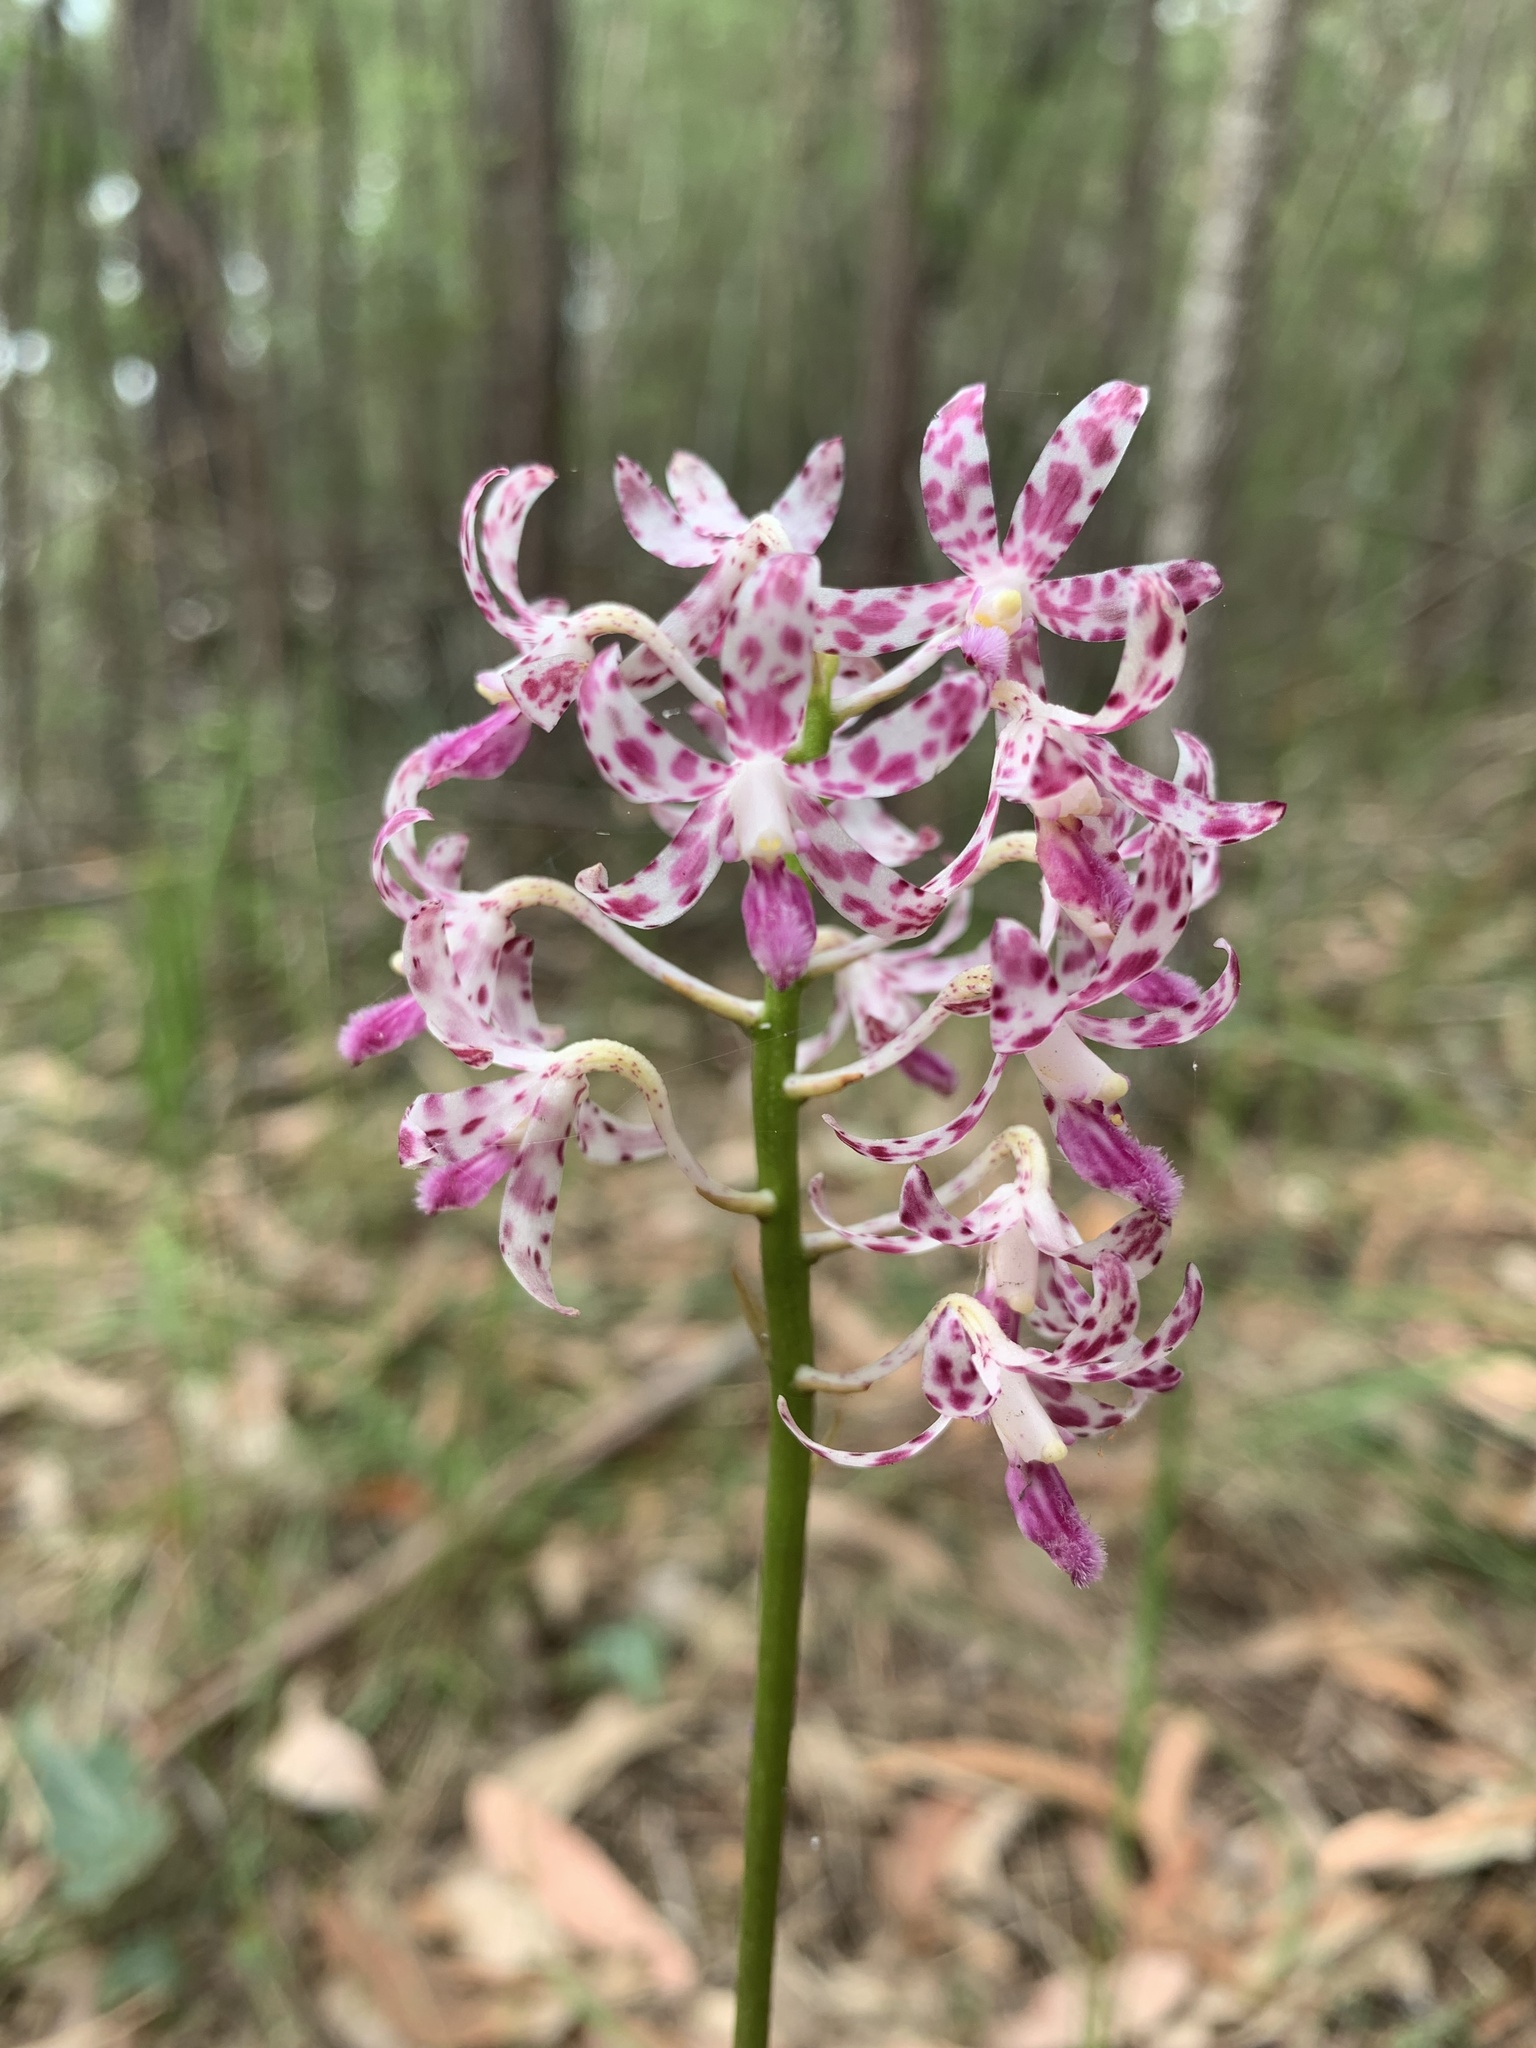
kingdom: Plantae
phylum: Tracheophyta
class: Liliopsida
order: Asparagales
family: Orchidaceae
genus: Dipodium
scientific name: Dipodium variegatum
